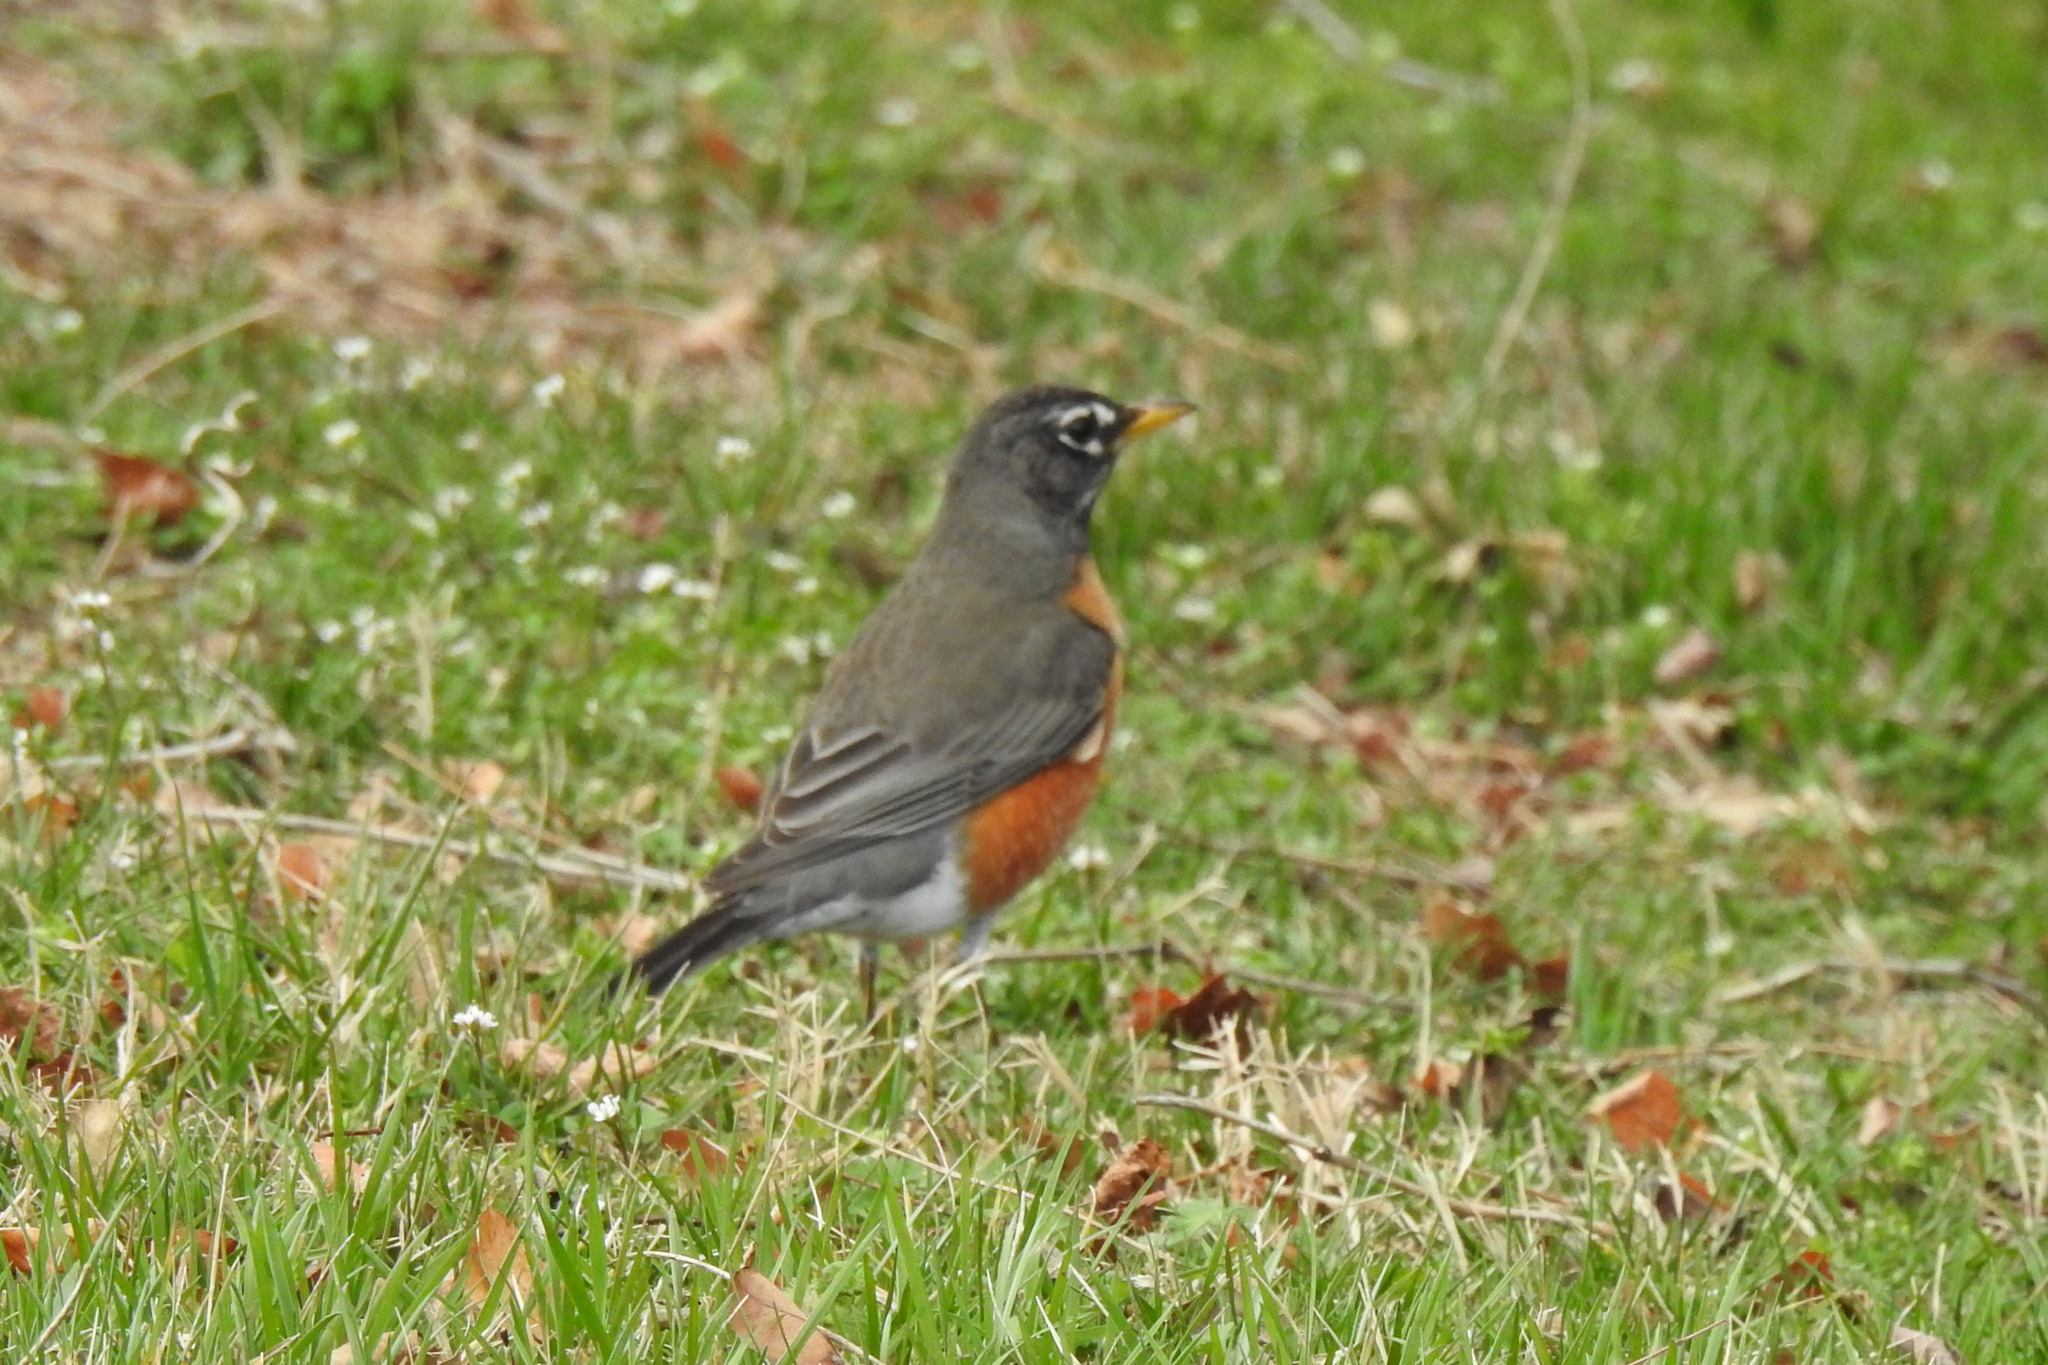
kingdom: Animalia
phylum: Chordata
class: Aves
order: Passeriformes
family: Turdidae
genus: Turdus
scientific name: Turdus migratorius
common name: American robin
